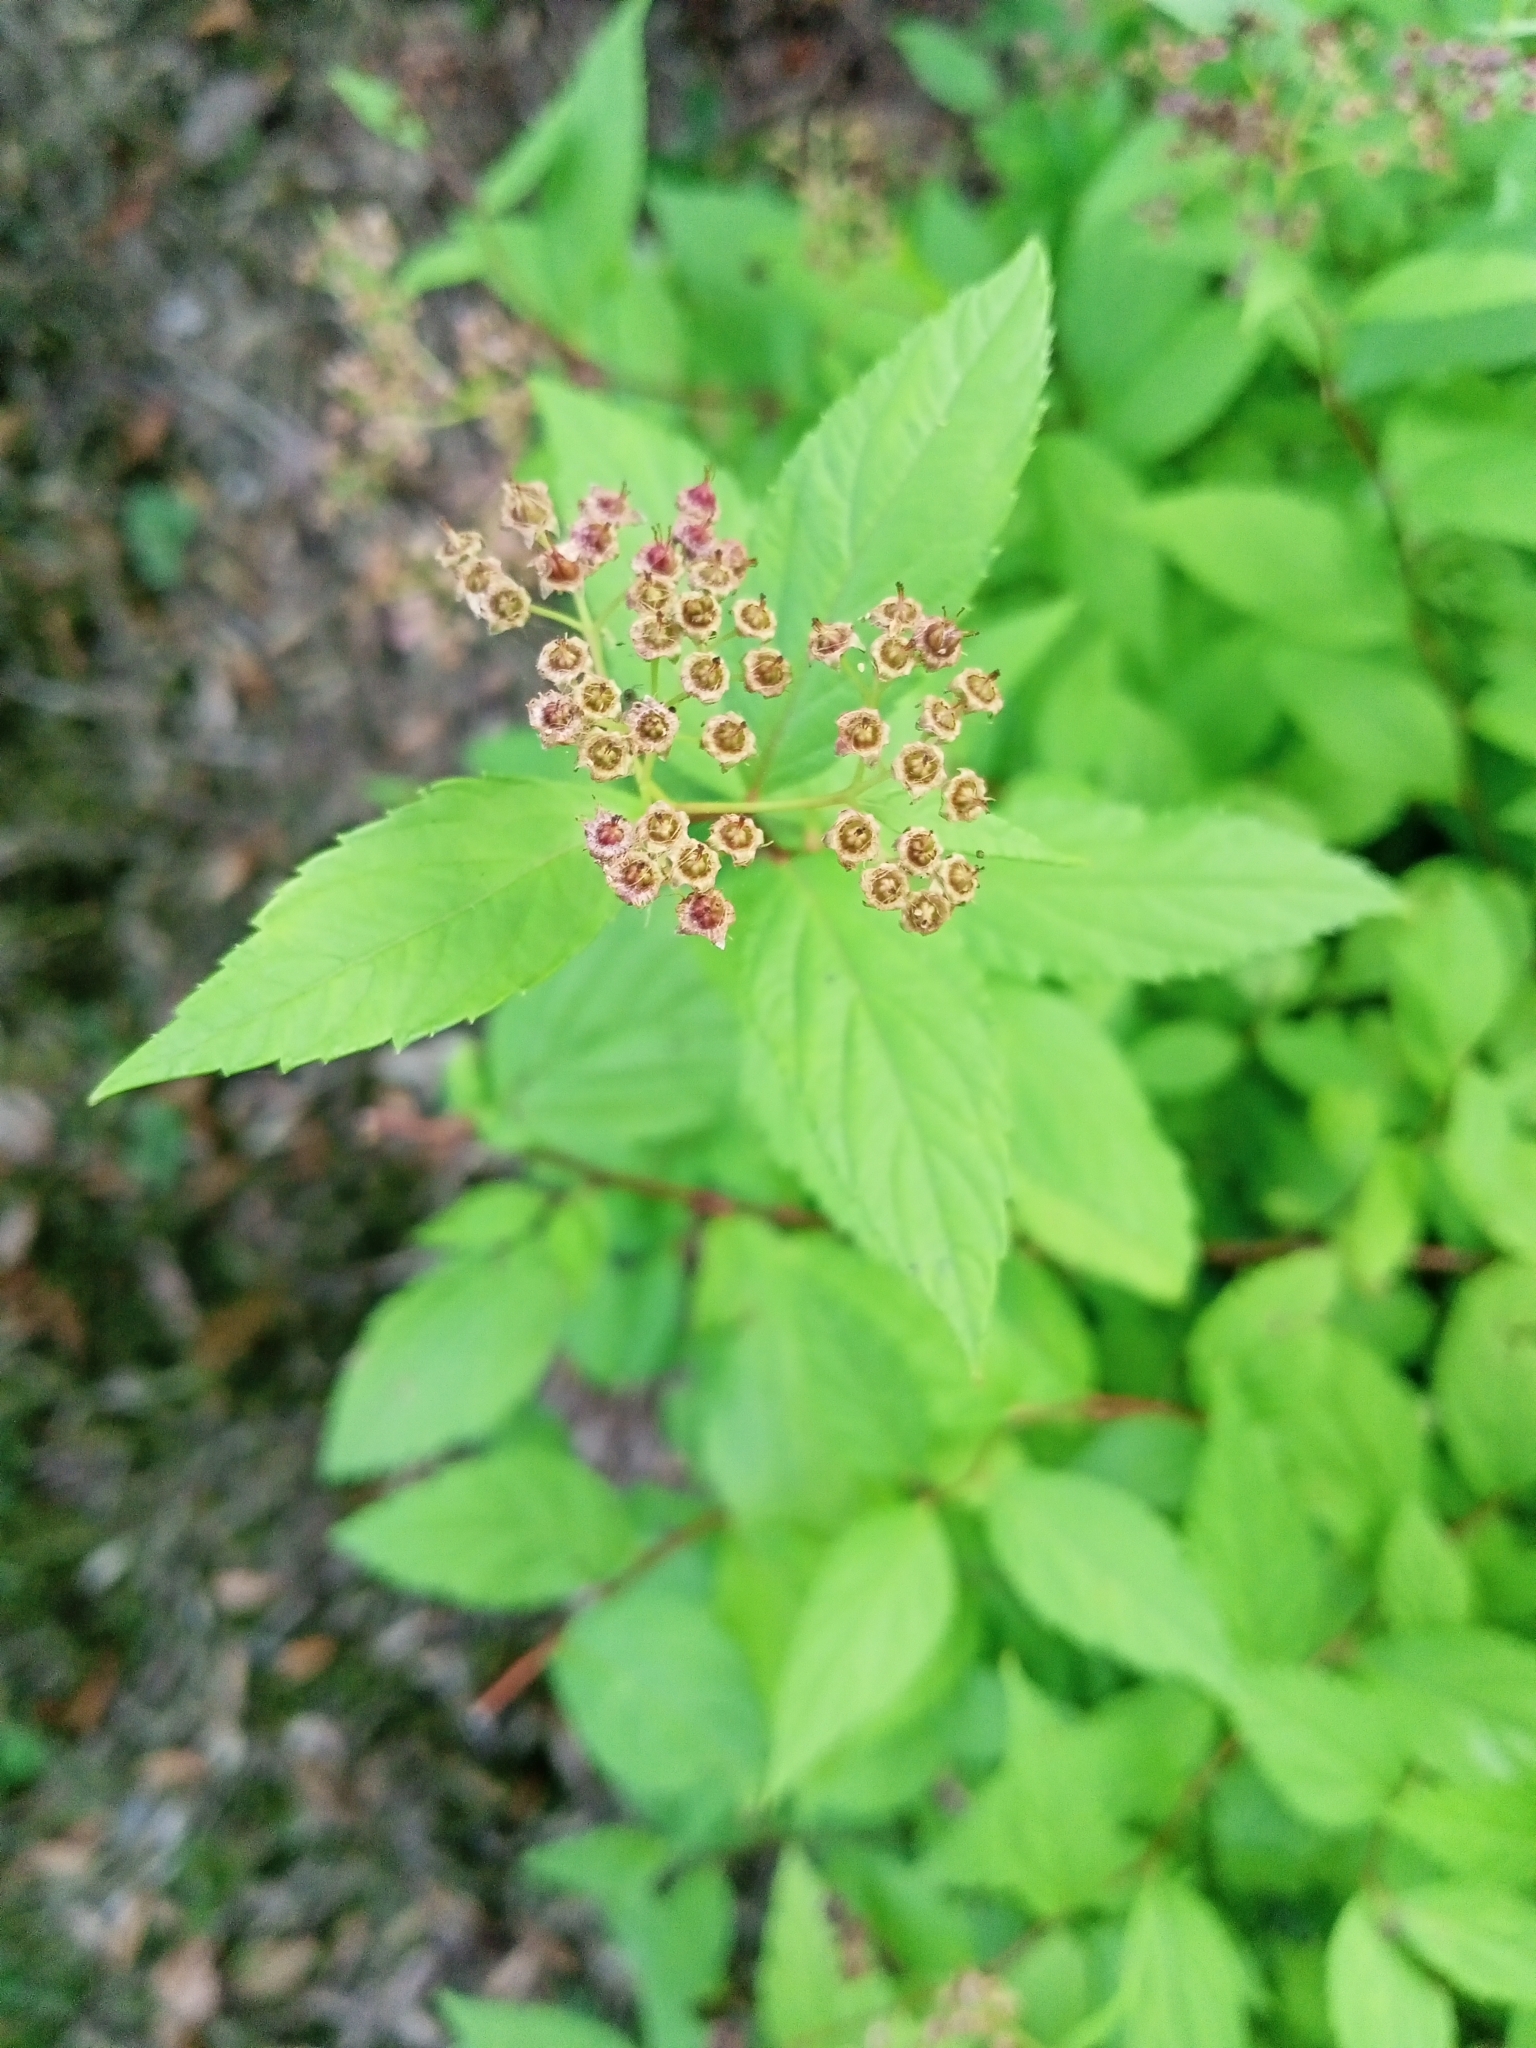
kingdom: Plantae
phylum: Tracheophyta
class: Magnoliopsida
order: Rosales
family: Rosaceae
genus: Spiraea
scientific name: Spiraea japonica
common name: Japanese spiraea
